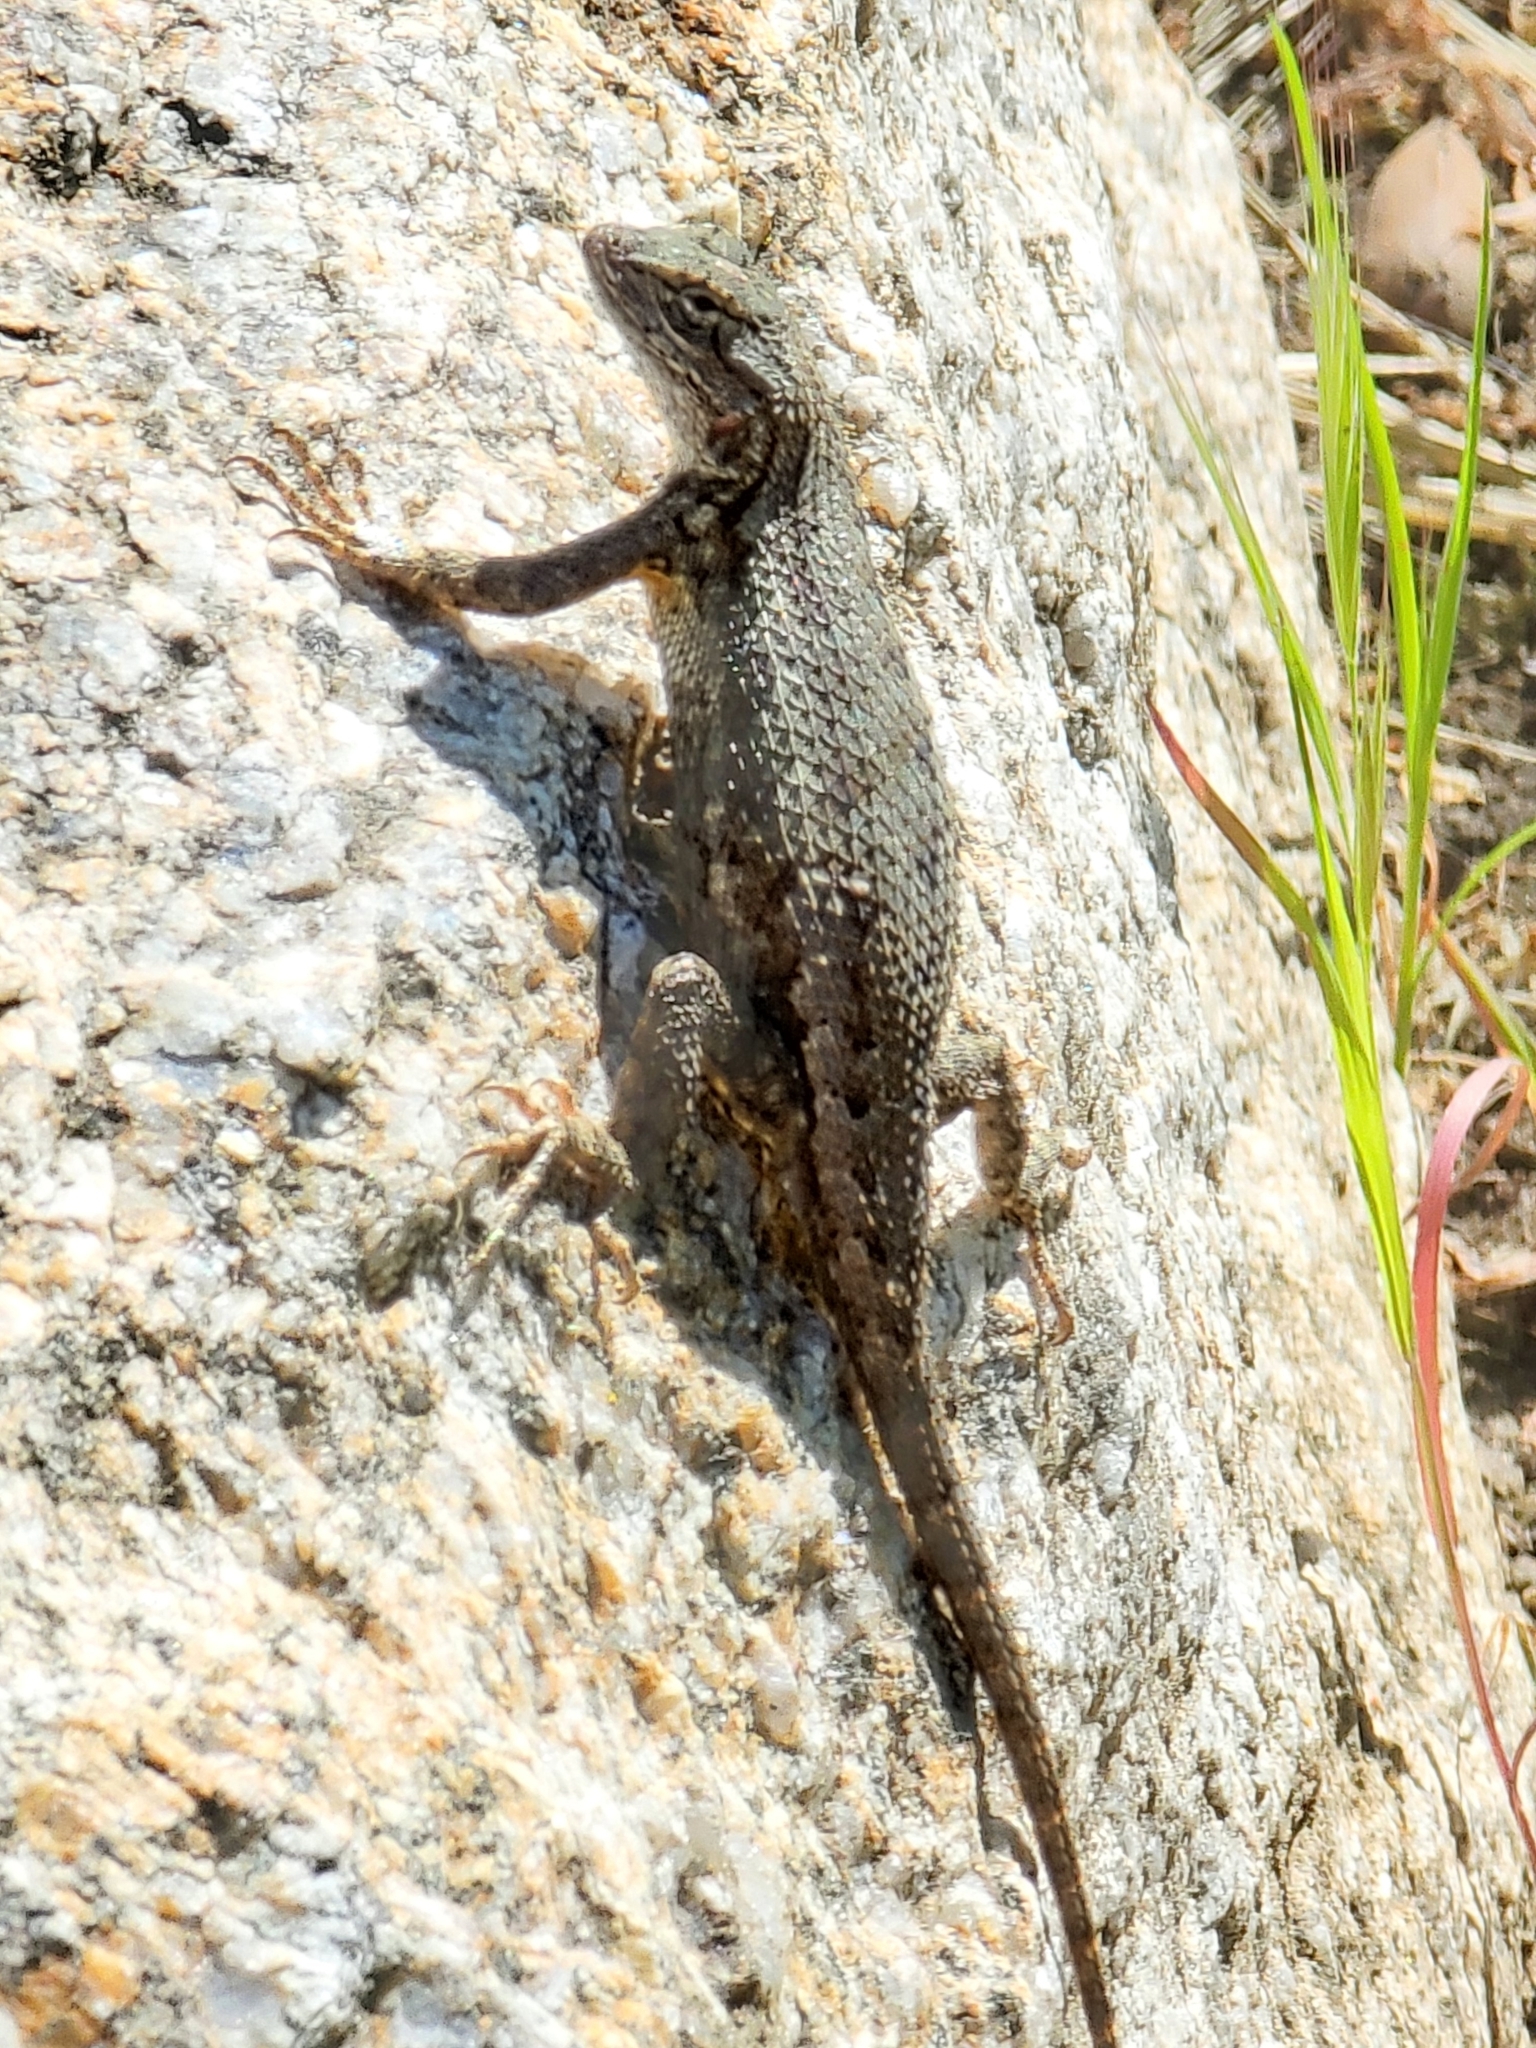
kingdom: Animalia
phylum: Chordata
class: Squamata
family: Phrynosomatidae
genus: Sceloporus
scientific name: Sceloporus occidentalis
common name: Western fence lizard
